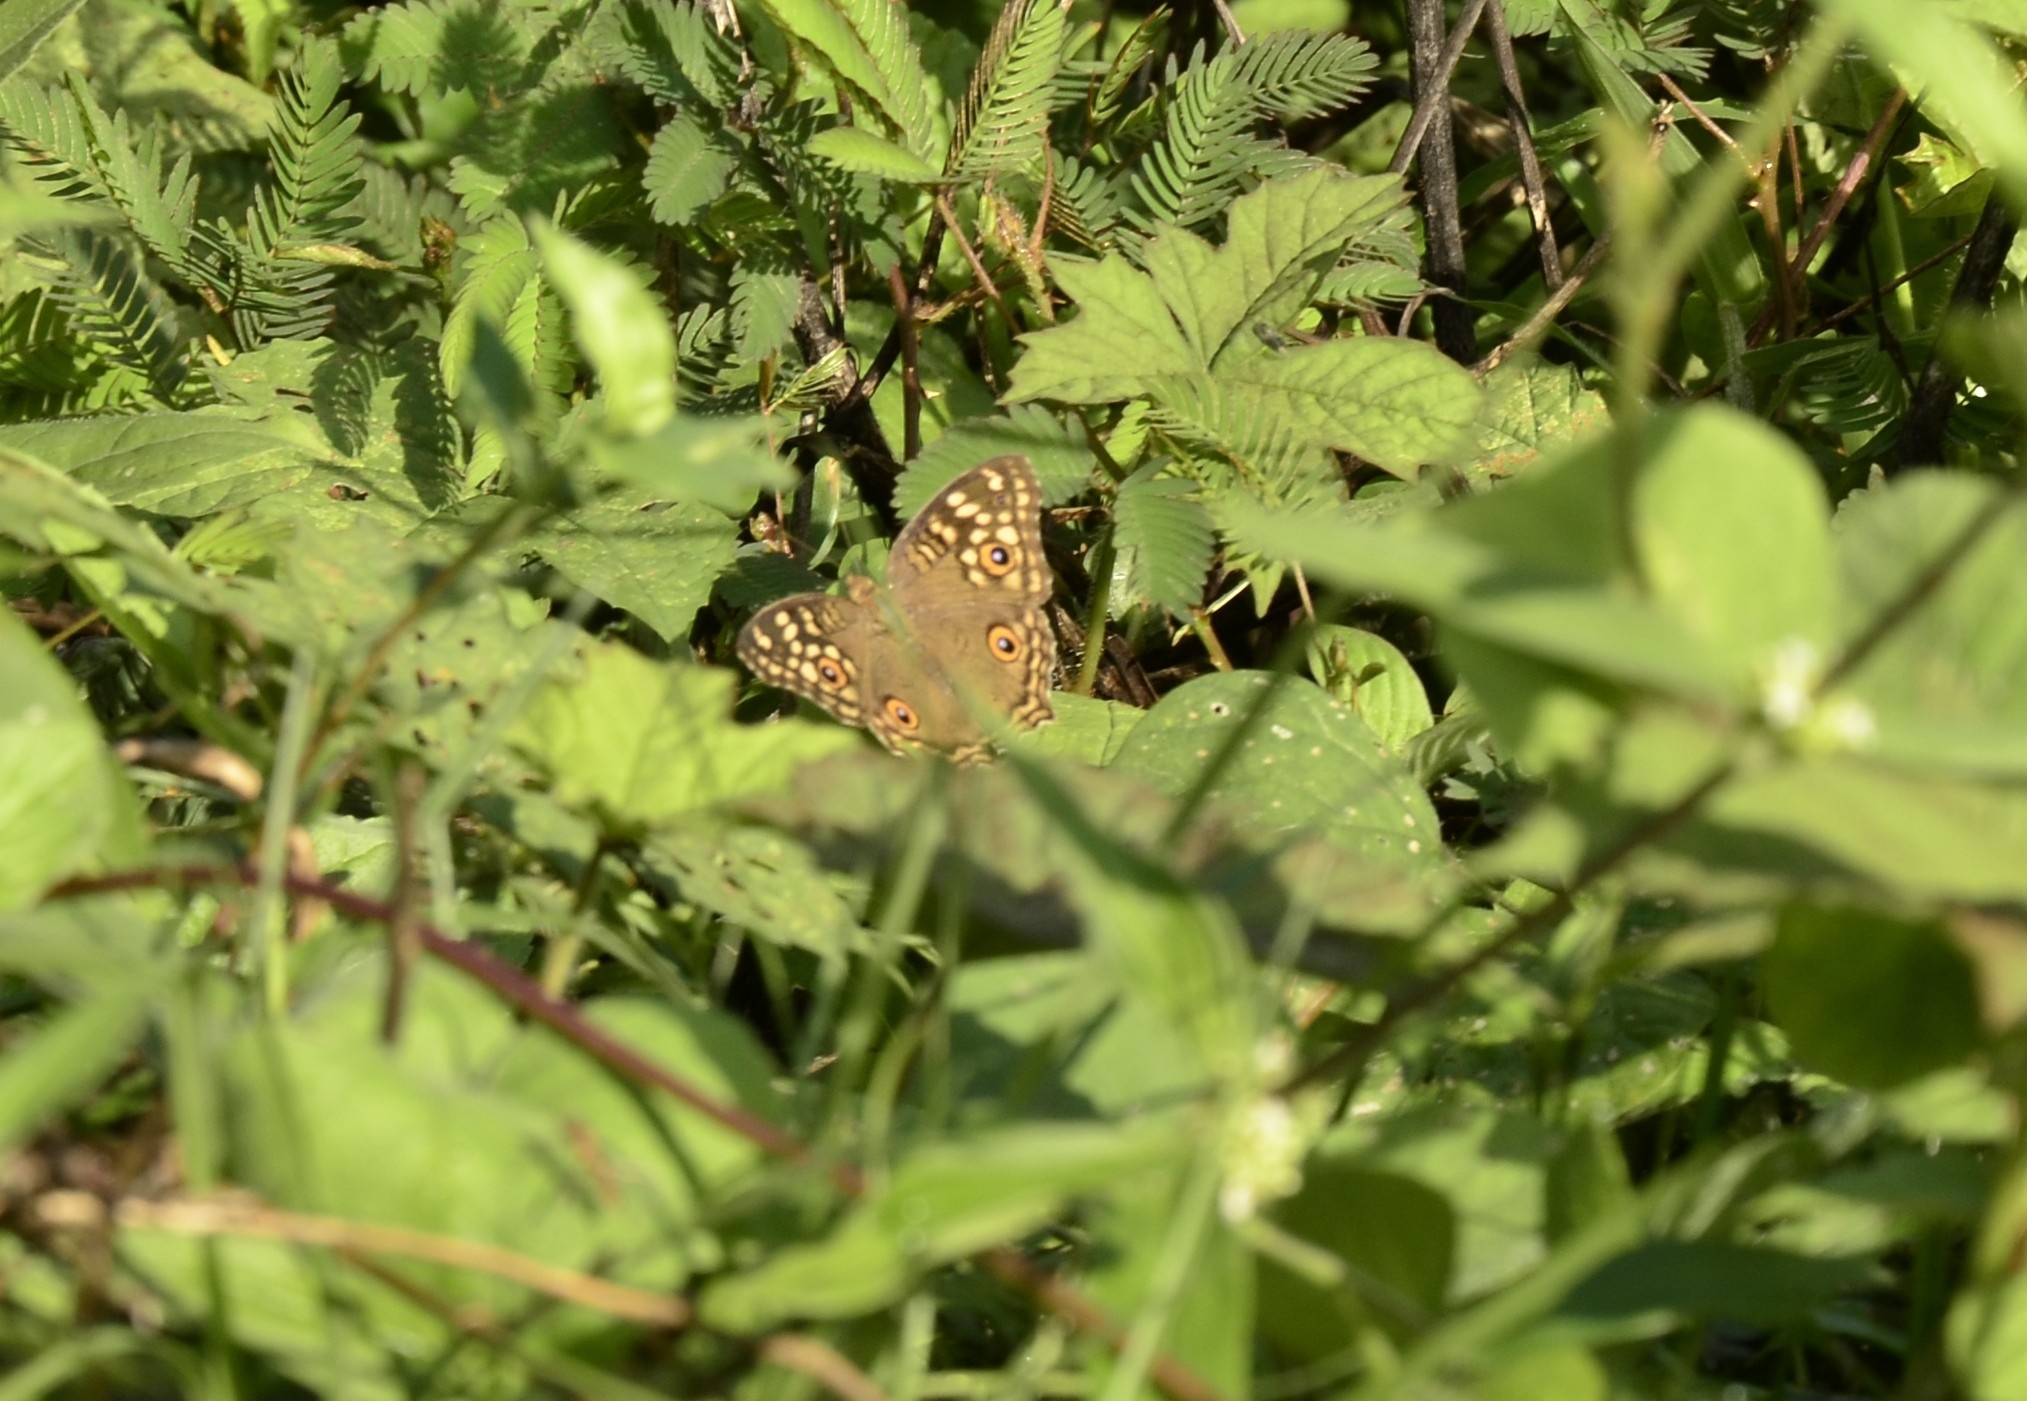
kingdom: Animalia
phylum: Arthropoda
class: Insecta
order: Lepidoptera
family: Nymphalidae
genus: Junonia
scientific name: Junonia lemonias
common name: Lemon pansy
